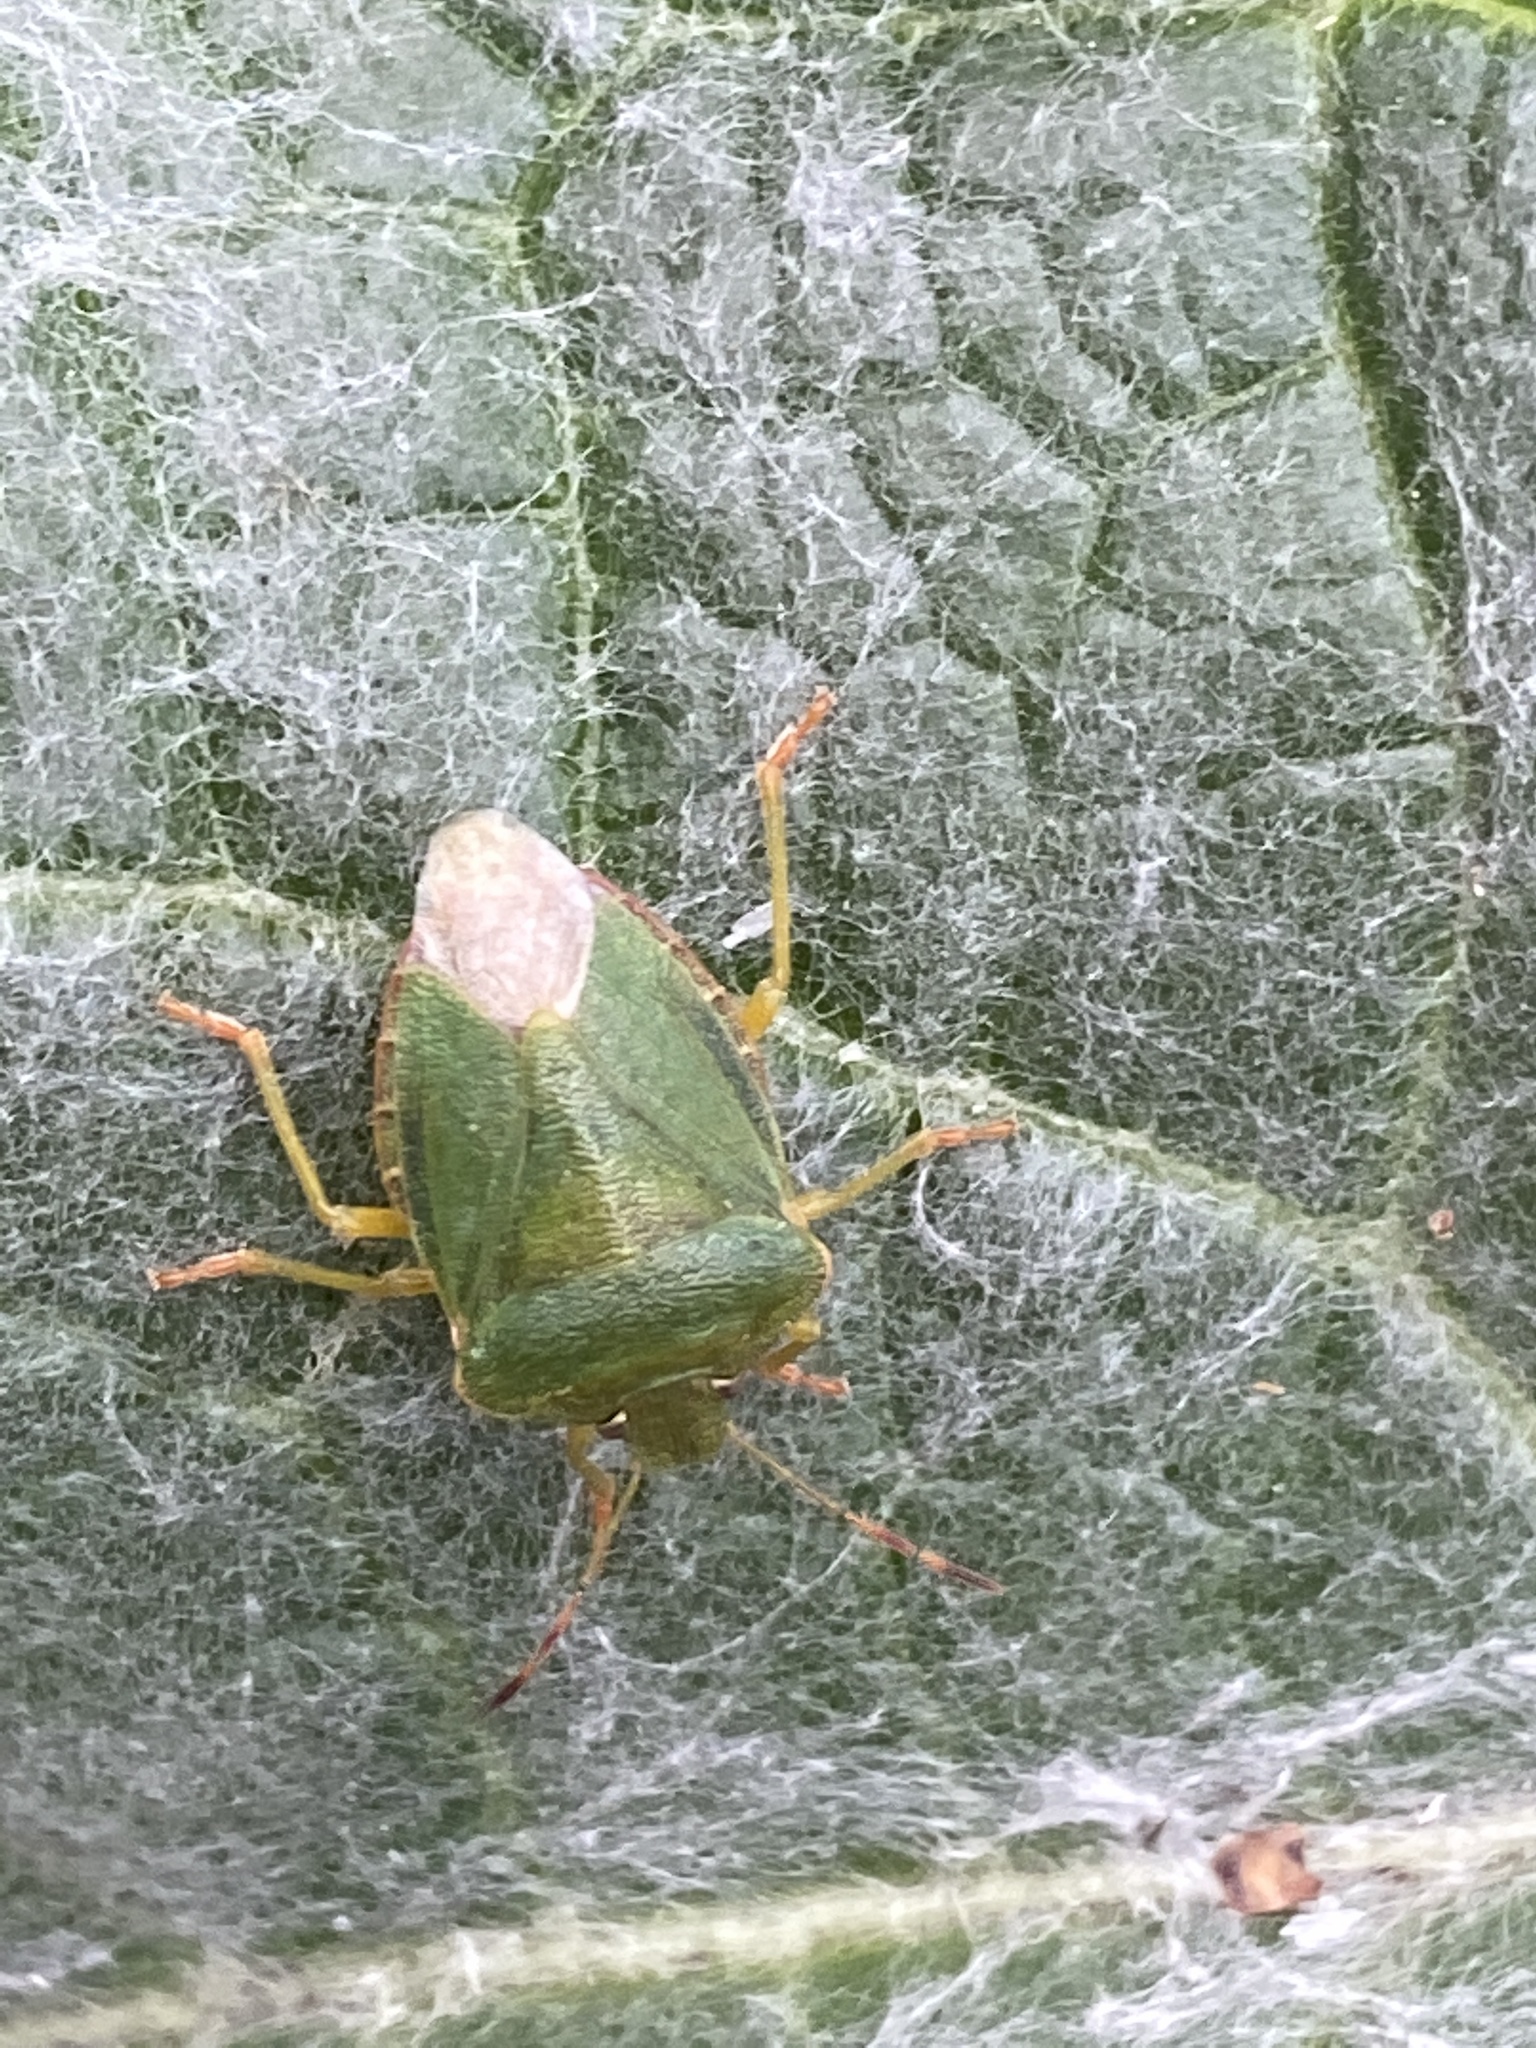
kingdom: Animalia
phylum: Arthropoda
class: Insecta
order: Hemiptera
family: Pentatomidae
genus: Palomena
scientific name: Palomena prasina
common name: Green shieldbug
